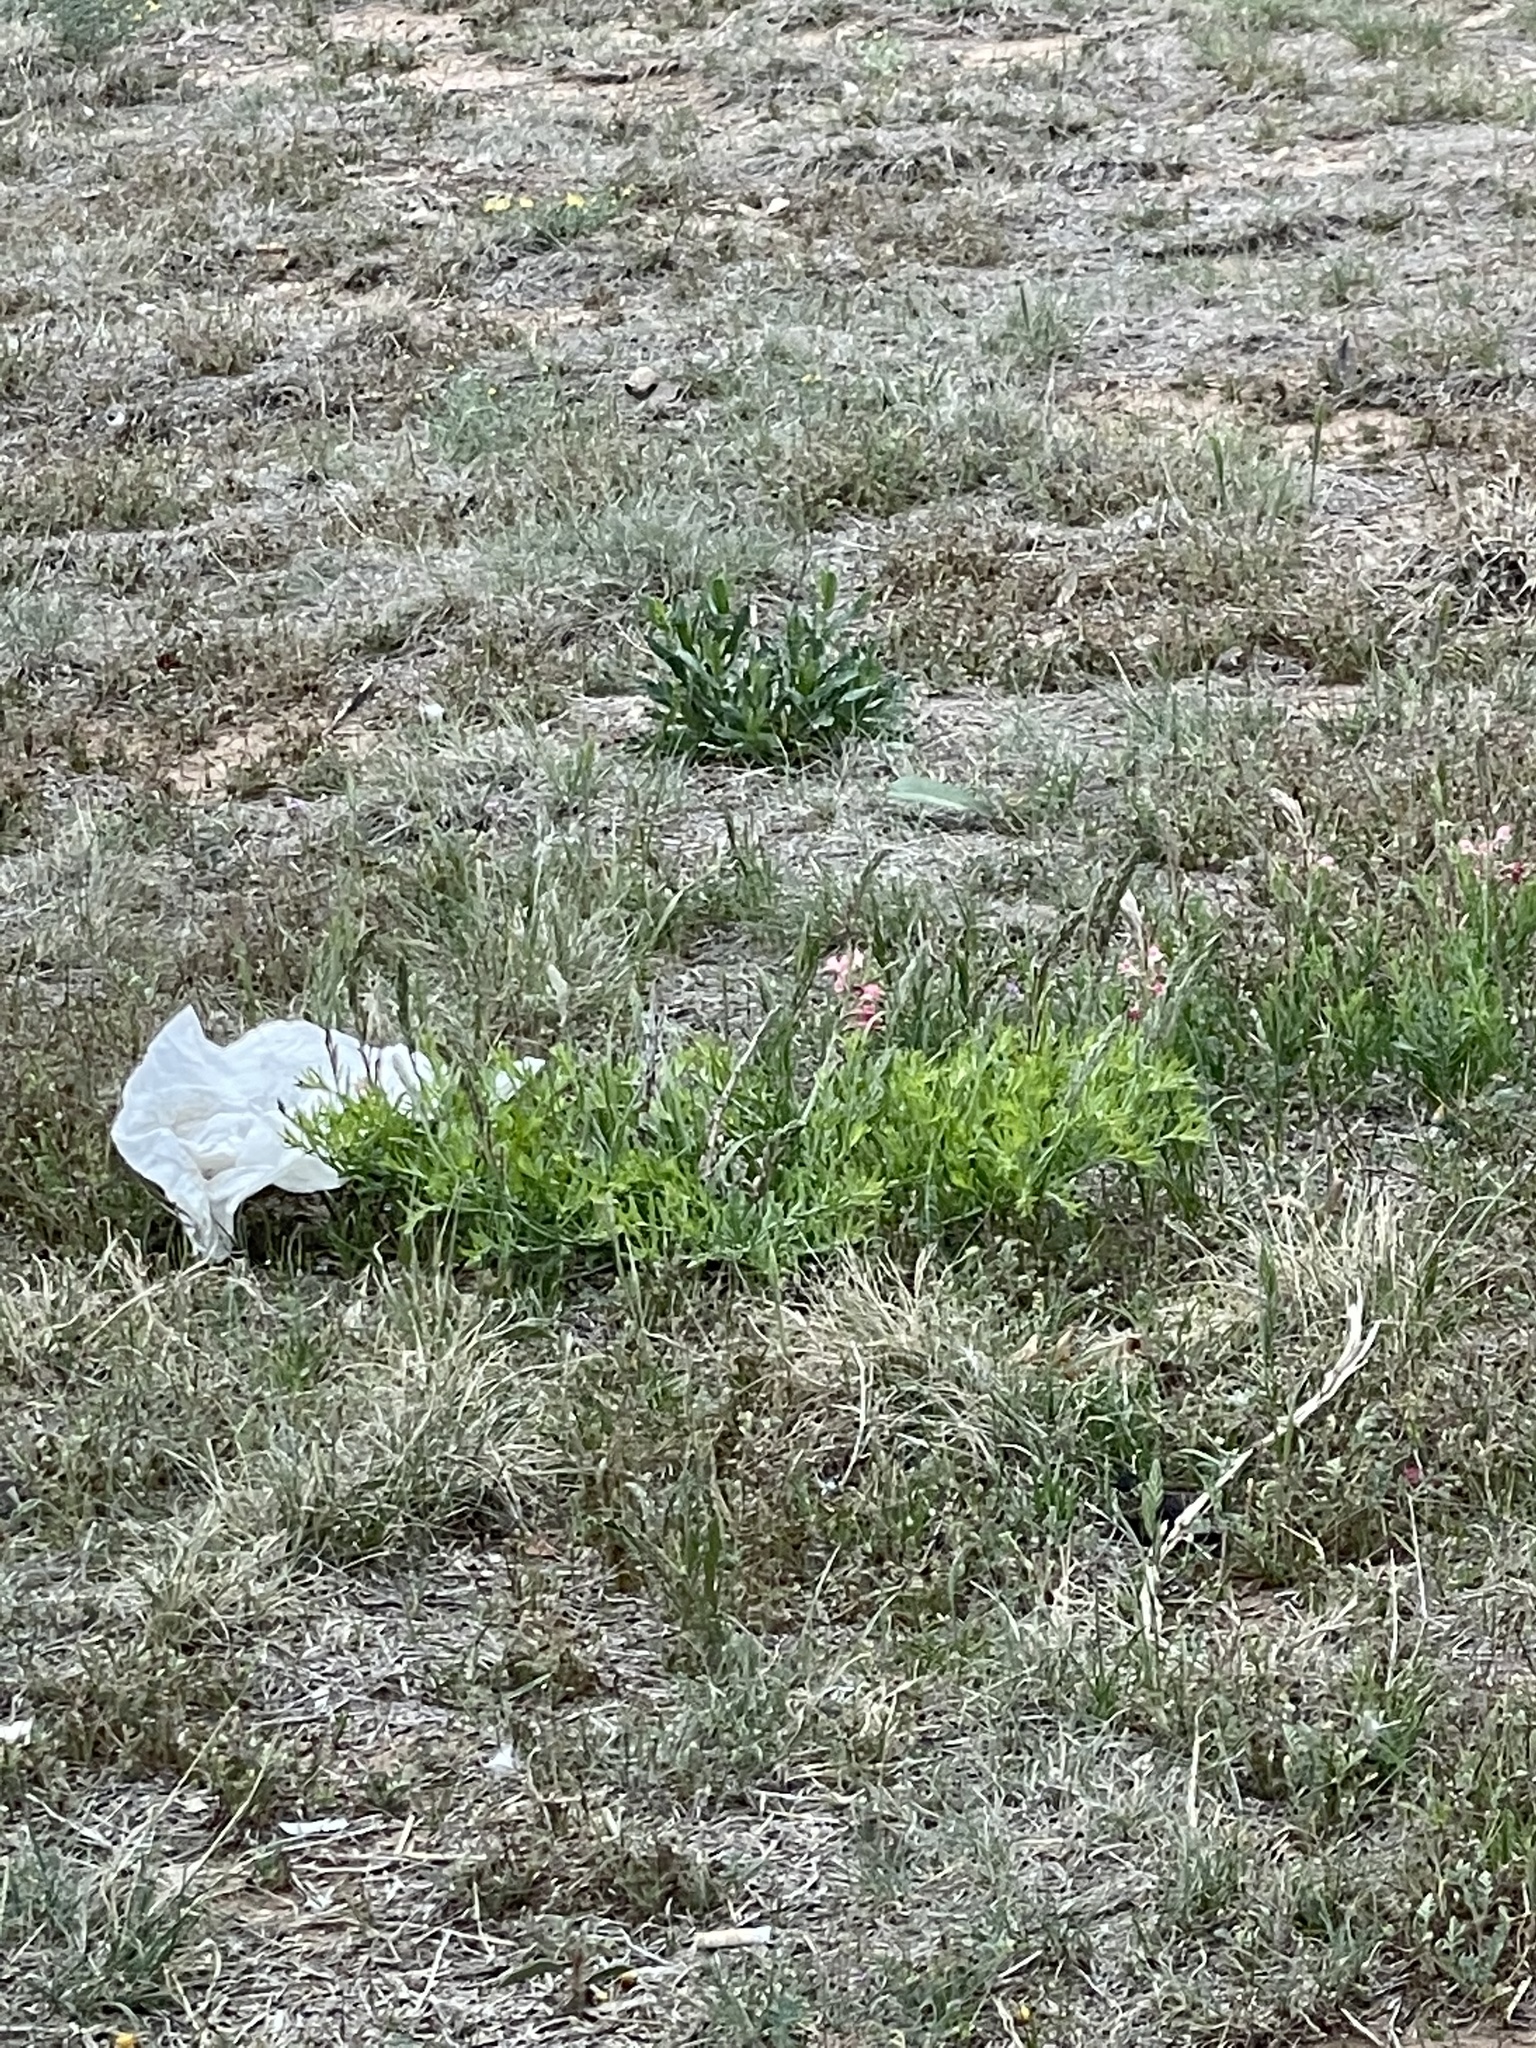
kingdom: Plantae
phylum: Tracheophyta
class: Magnoliopsida
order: Myrtales
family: Onagraceae
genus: Oenothera
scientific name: Oenothera suffrutescens
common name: Scarlet beeblossom
